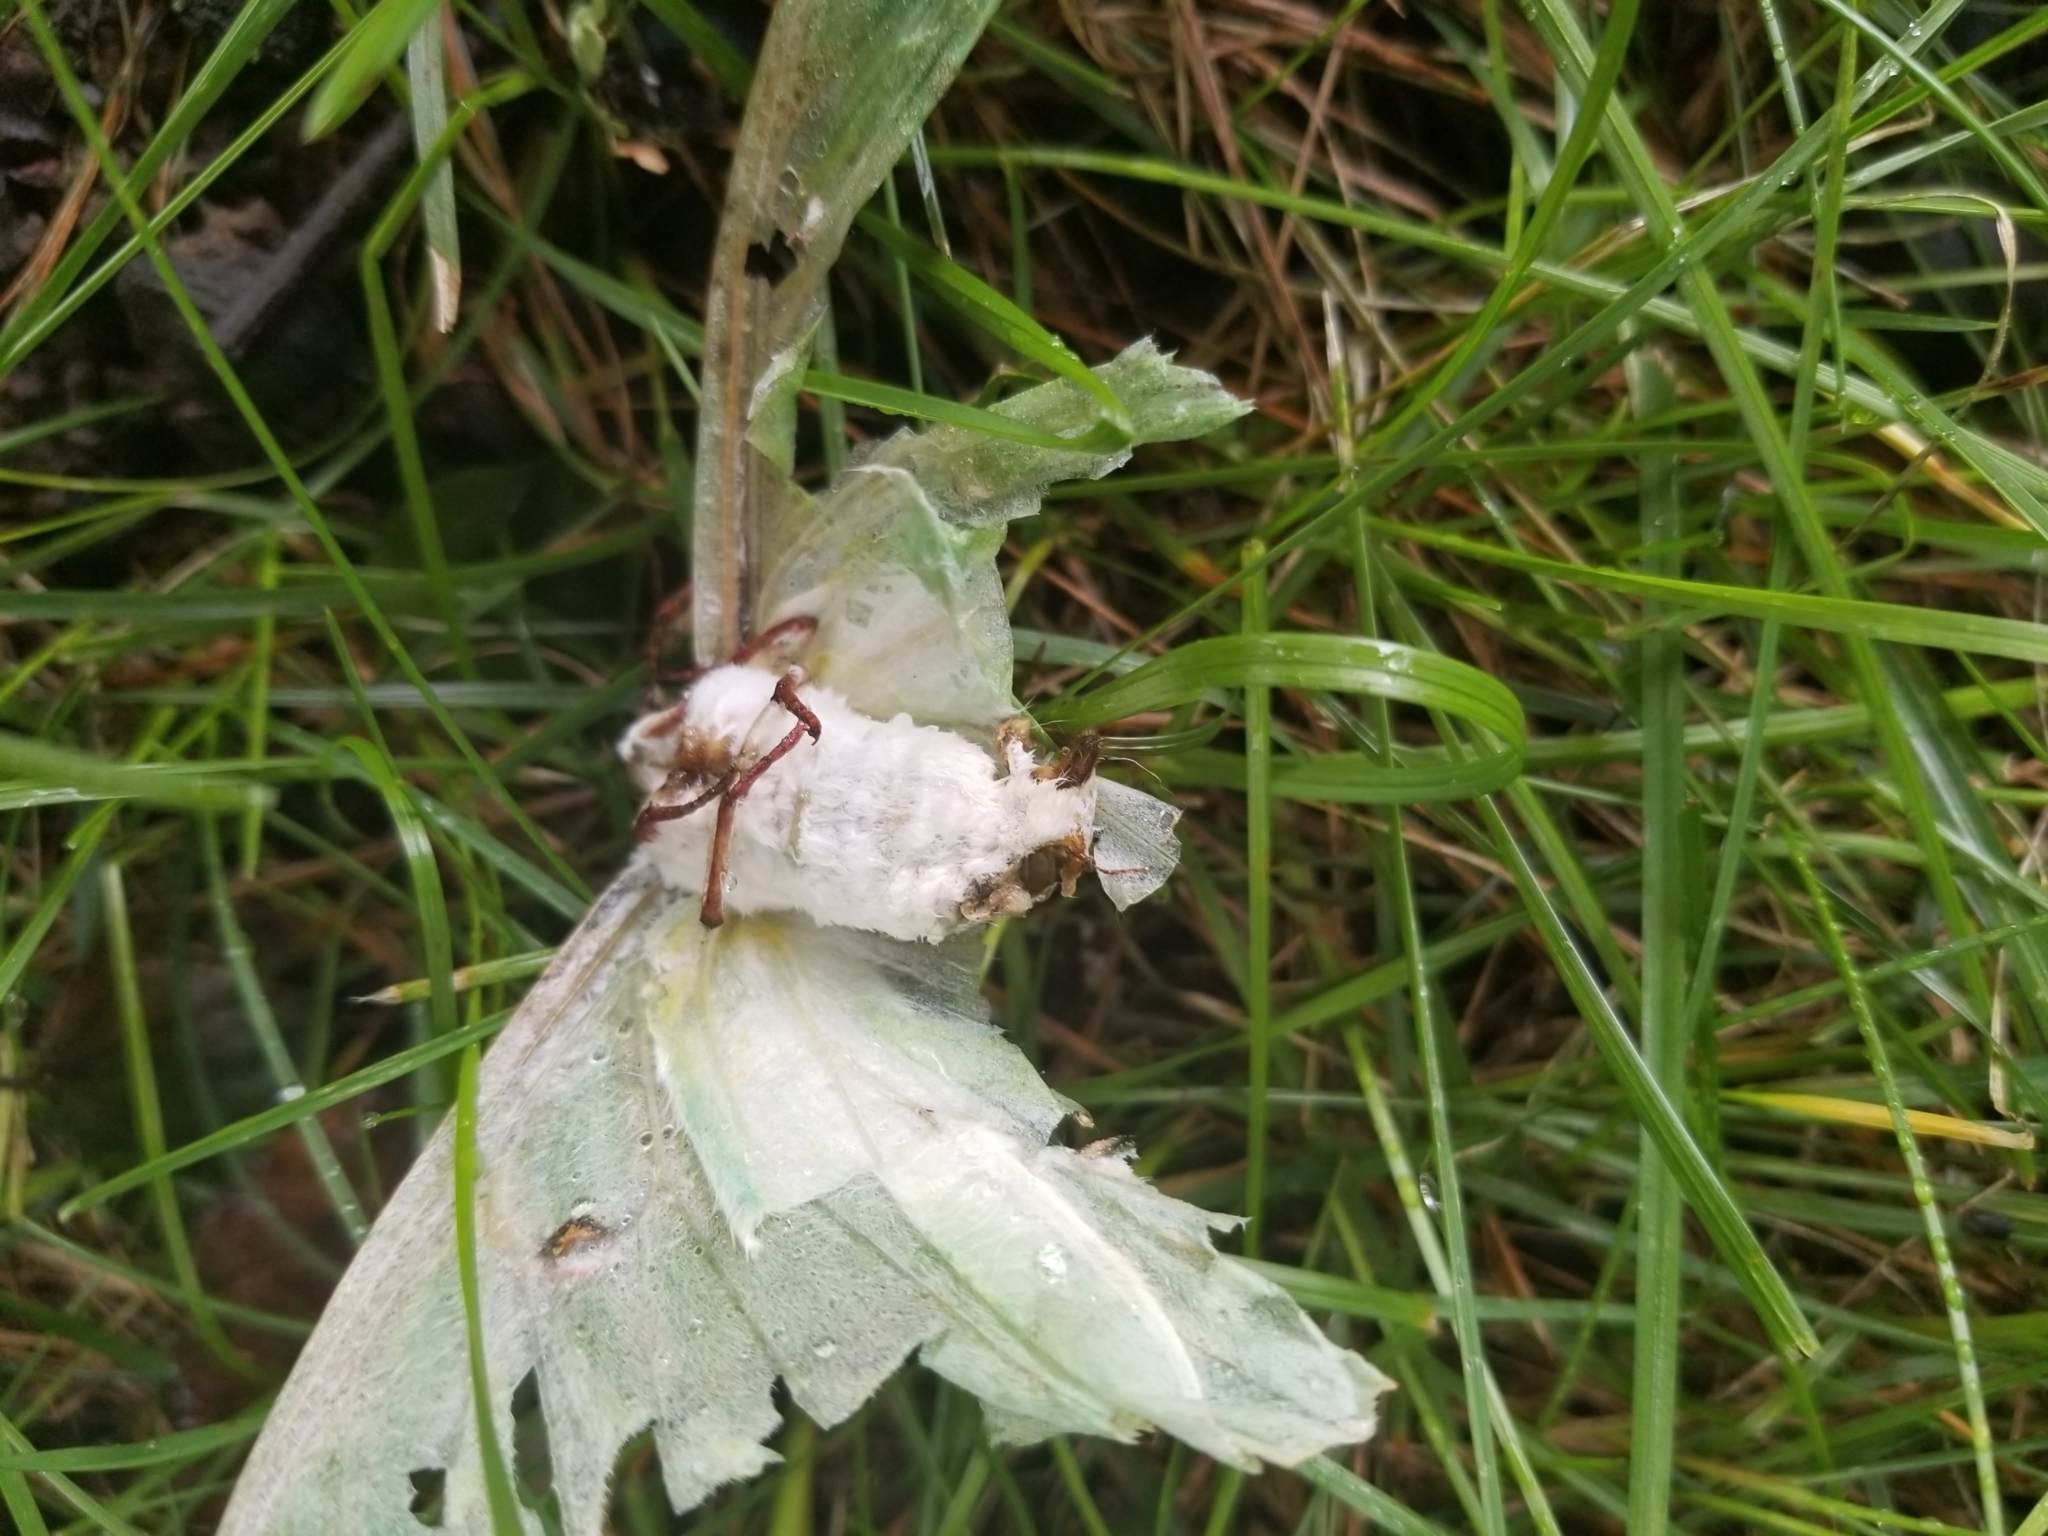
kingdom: Animalia
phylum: Arthropoda
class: Insecta
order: Lepidoptera
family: Saturniidae
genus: Actias
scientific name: Actias luna
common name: Luna moth
